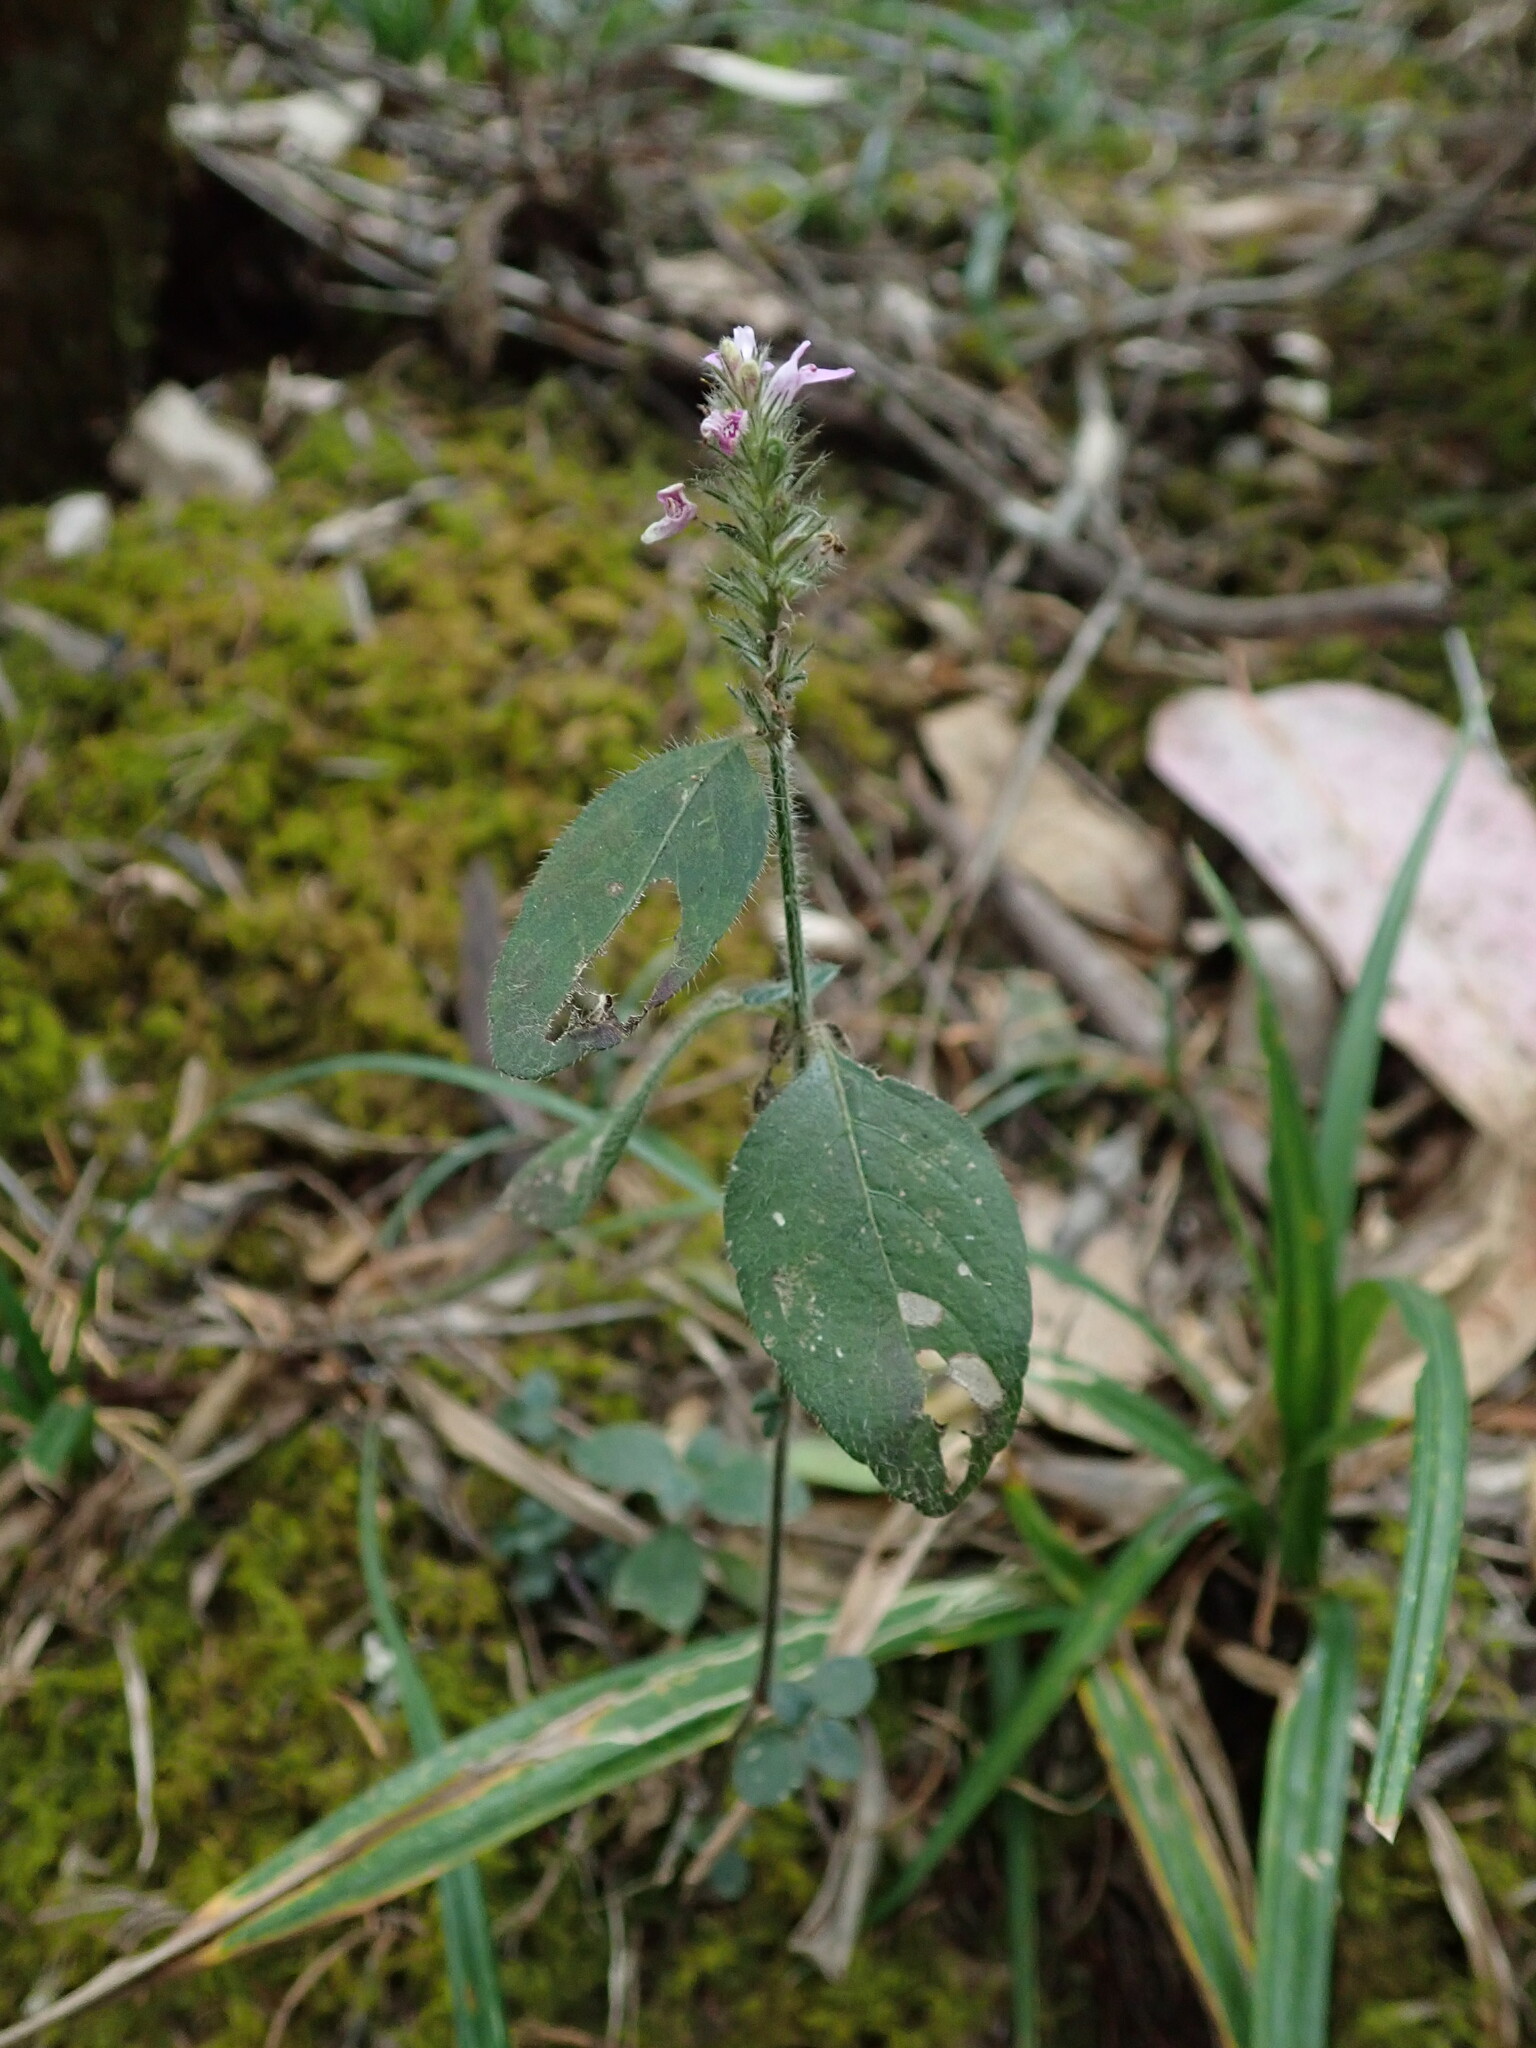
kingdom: Plantae
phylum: Tracheophyta
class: Magnoliopsida
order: Lamiales
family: Acanthaceae
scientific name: Acanthaceae
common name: Acanthaceae
